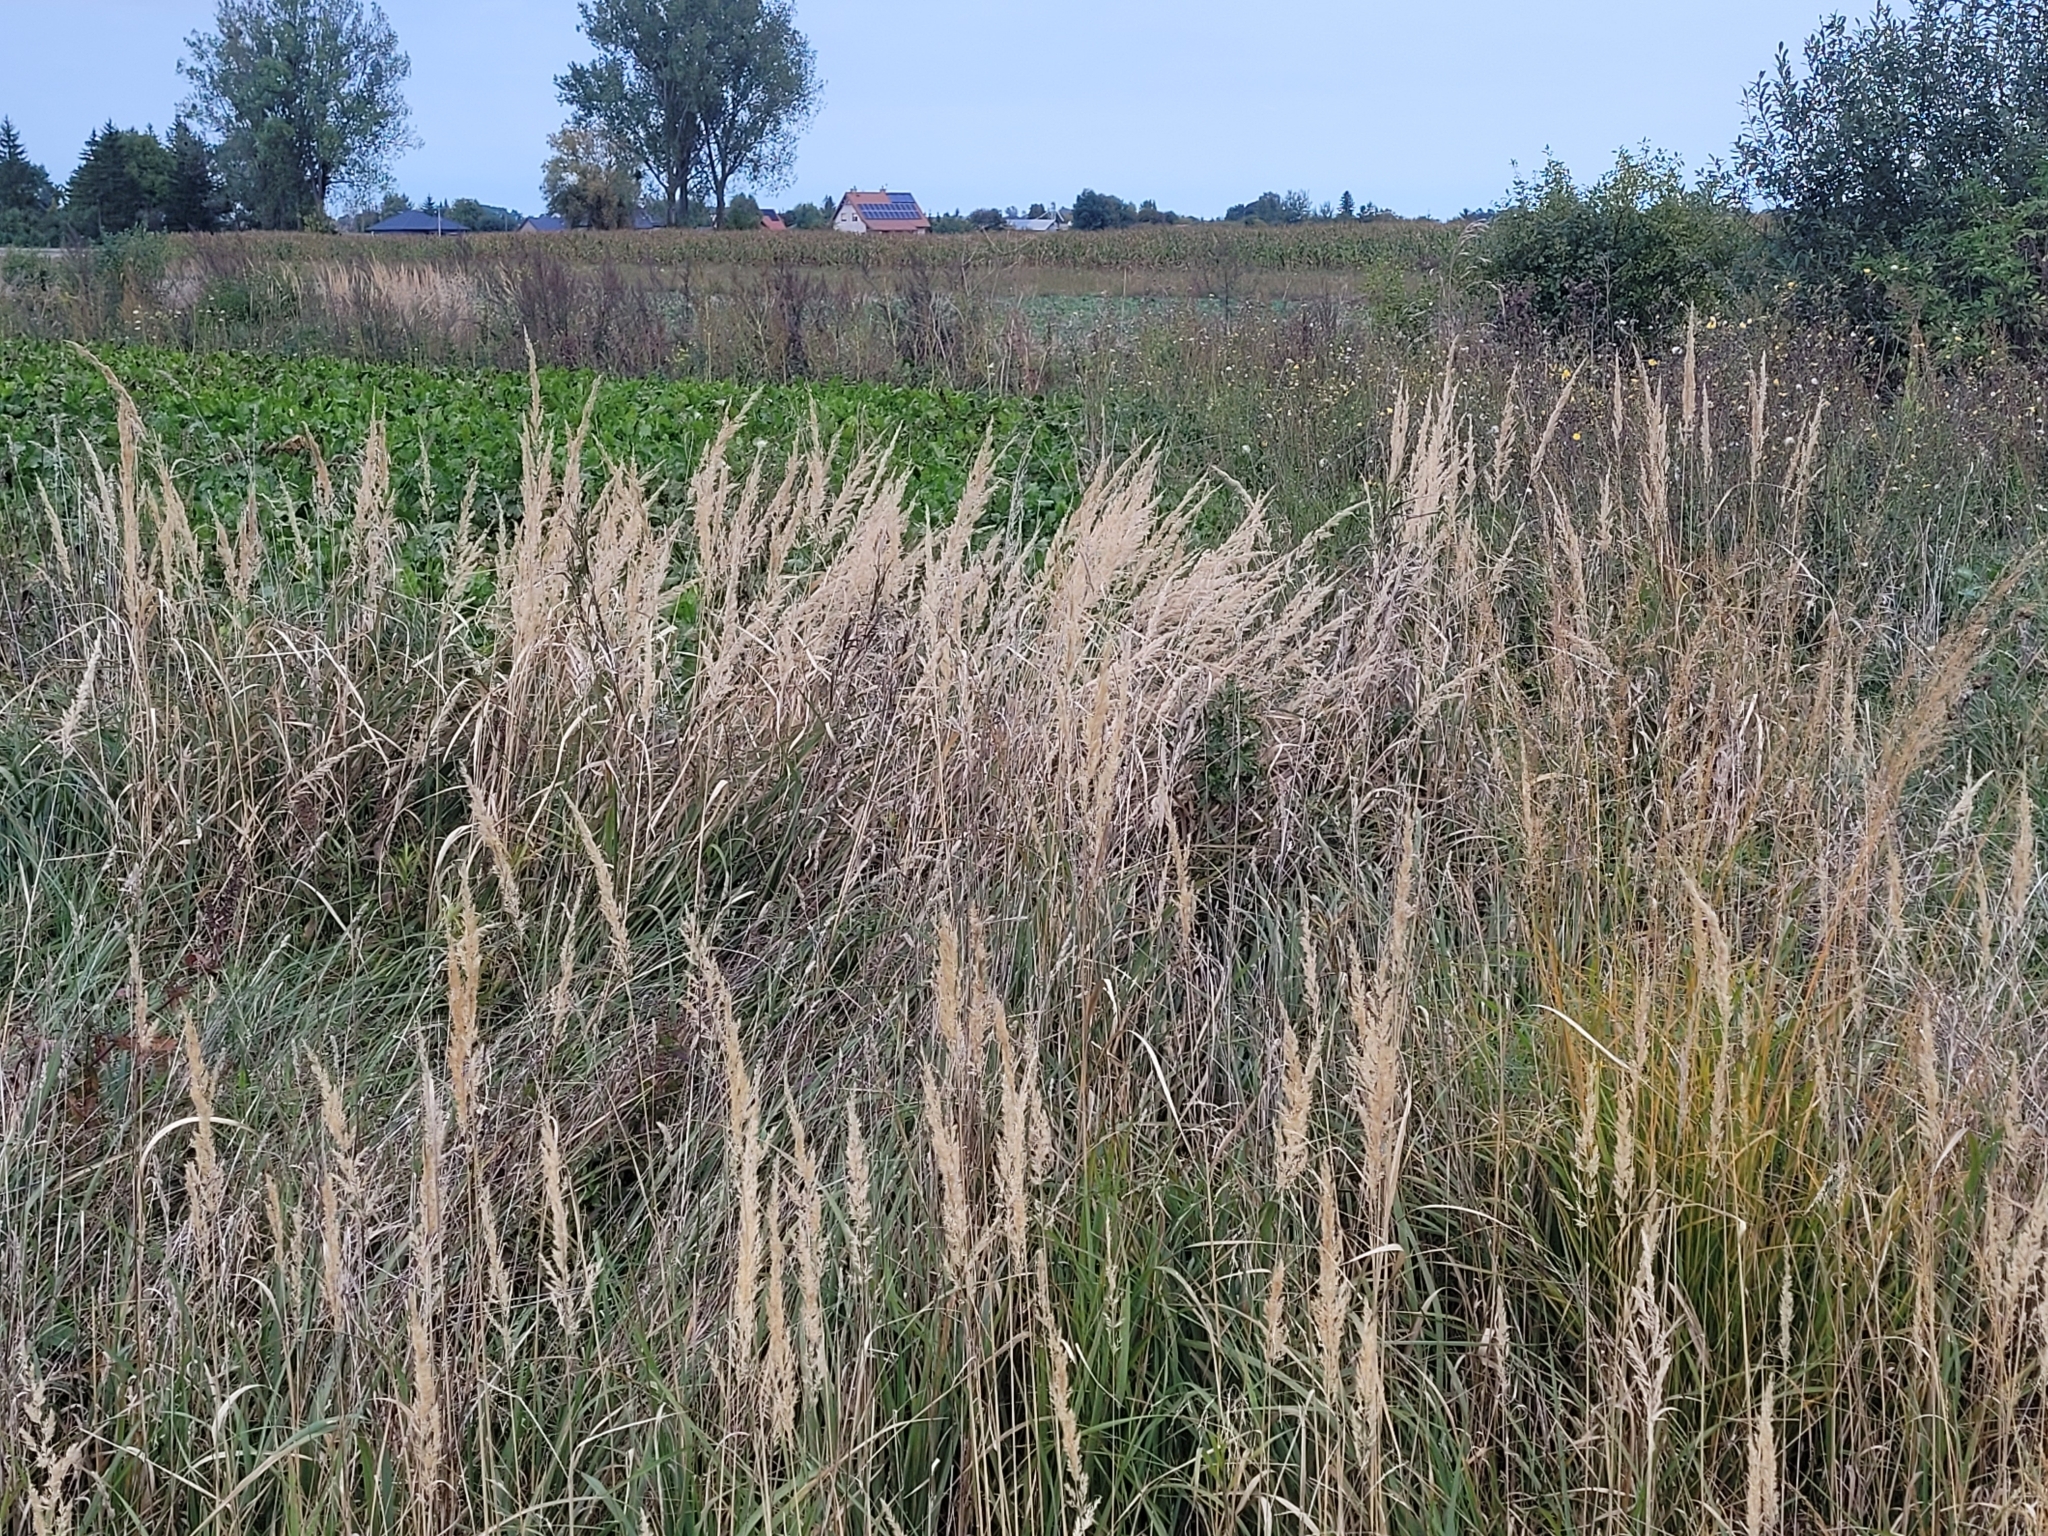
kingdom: Plantae
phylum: Tracheophyta
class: Liliopsida
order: Poales
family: Poaceae
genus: Calamagrostis
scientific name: Calamagrostis epigejos
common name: Wood small-reed
